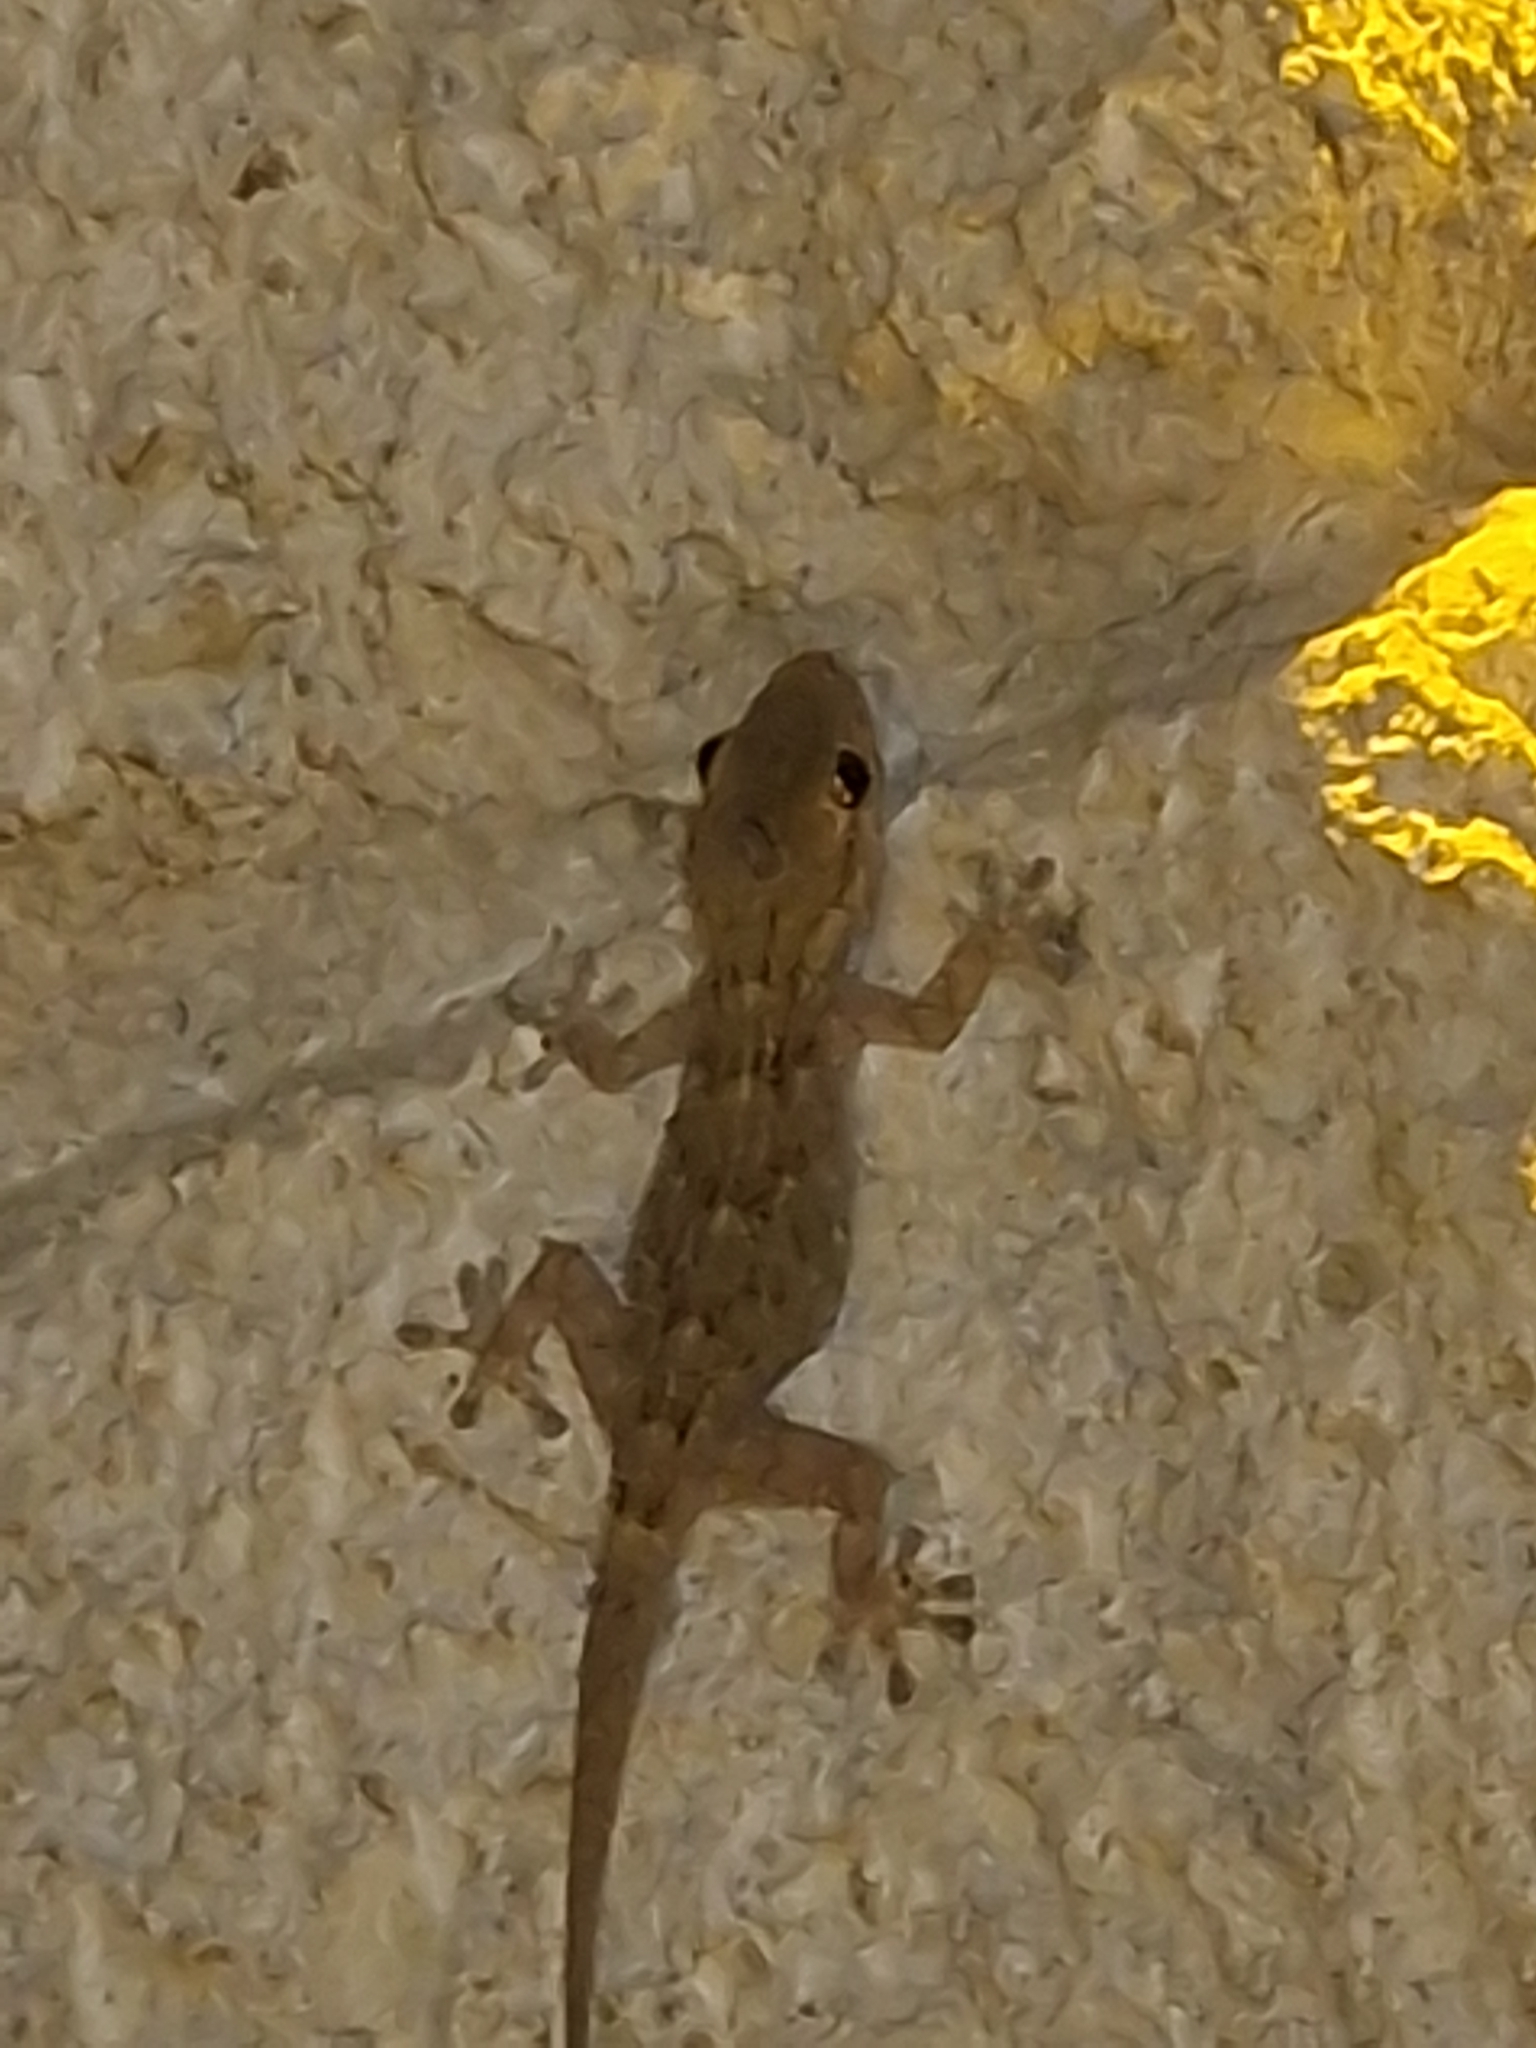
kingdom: Animalia
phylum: Chordata
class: Squamata
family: Phyllodactylidae
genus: Tarentola
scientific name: Tarentola mauritanica
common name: Moorish gecko
